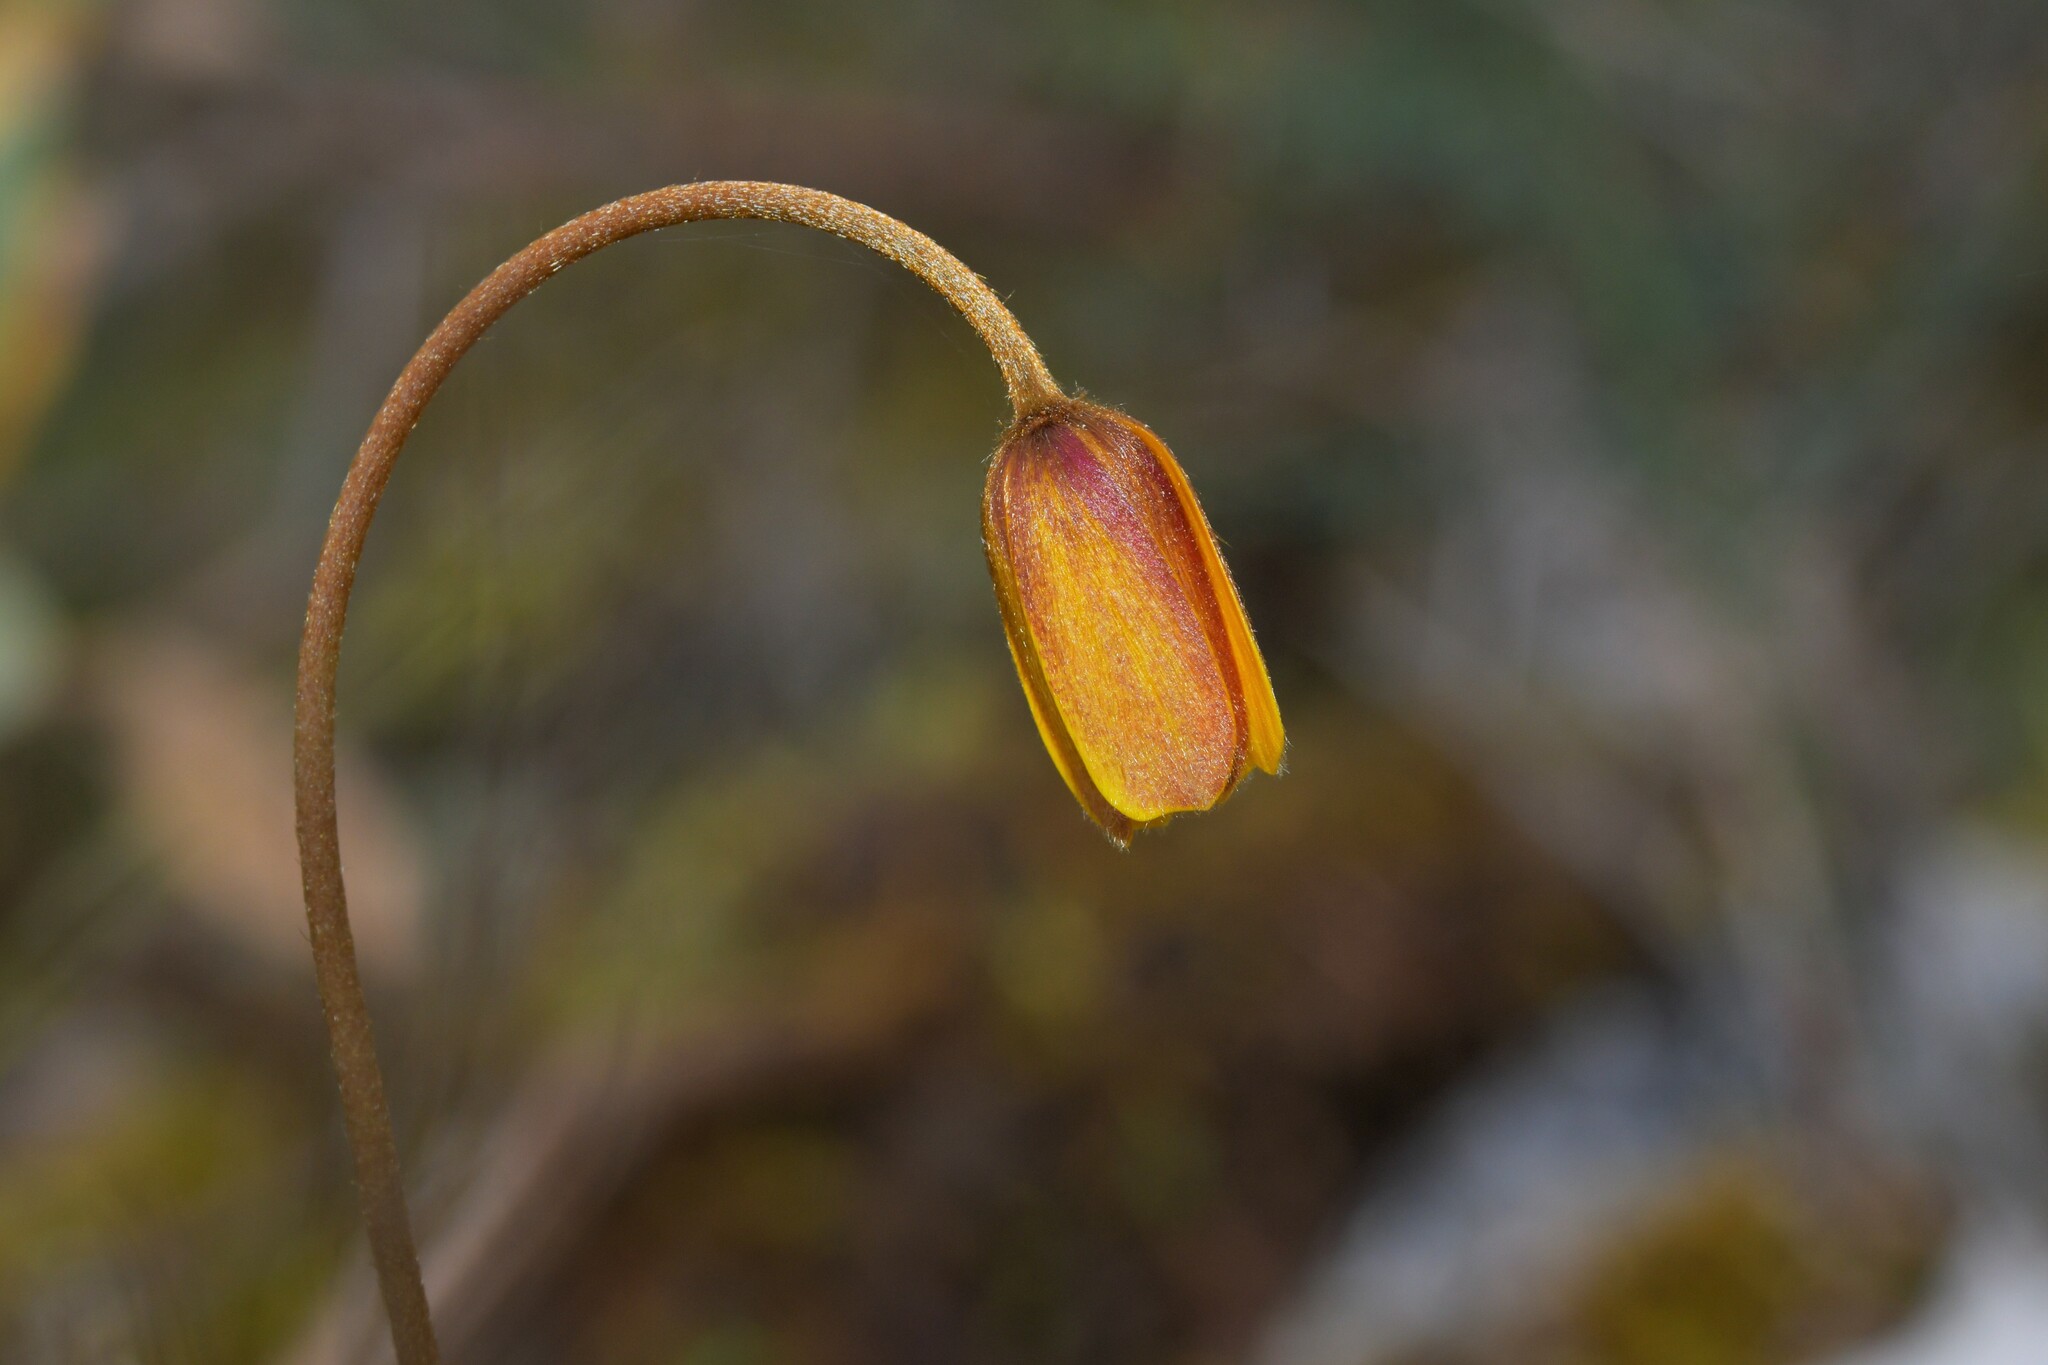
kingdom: Plantae
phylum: Tracheophyta
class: Magnoliopsida
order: Ranunculales
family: Ranunculaceae
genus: Anemone
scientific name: Anemone palmata
